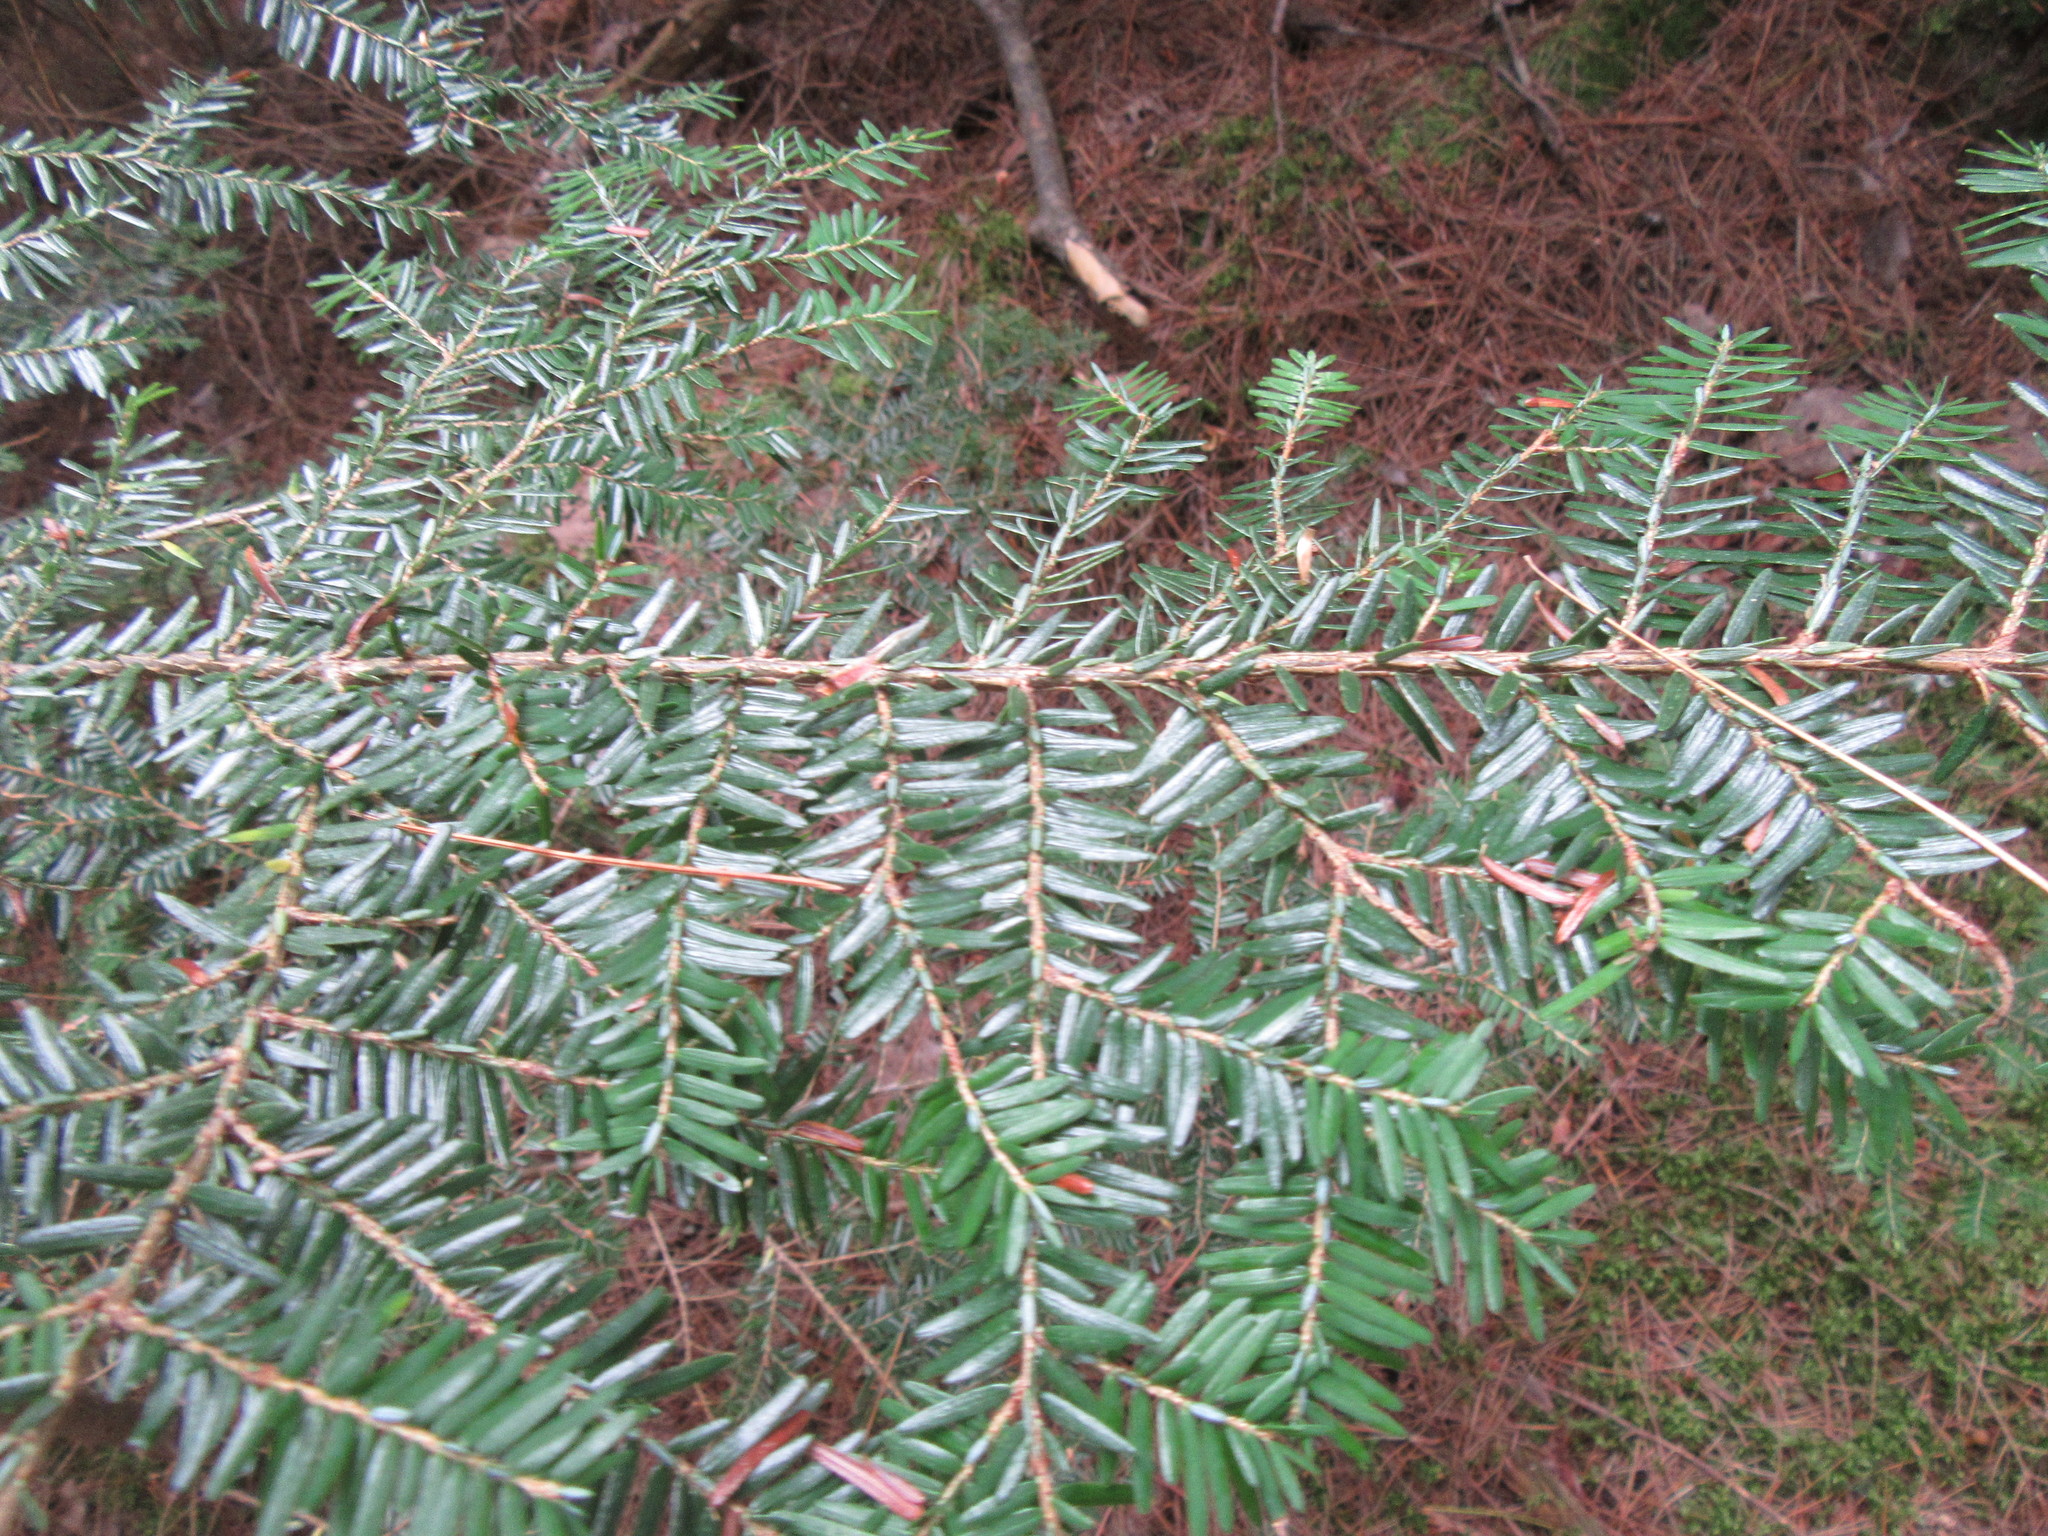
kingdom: Plantae
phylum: Tracheophyta
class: Pinopsida
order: Pinales
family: Pinaceae
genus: Tsuga
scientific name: Tsuga canadensis
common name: Eastern hemlock
